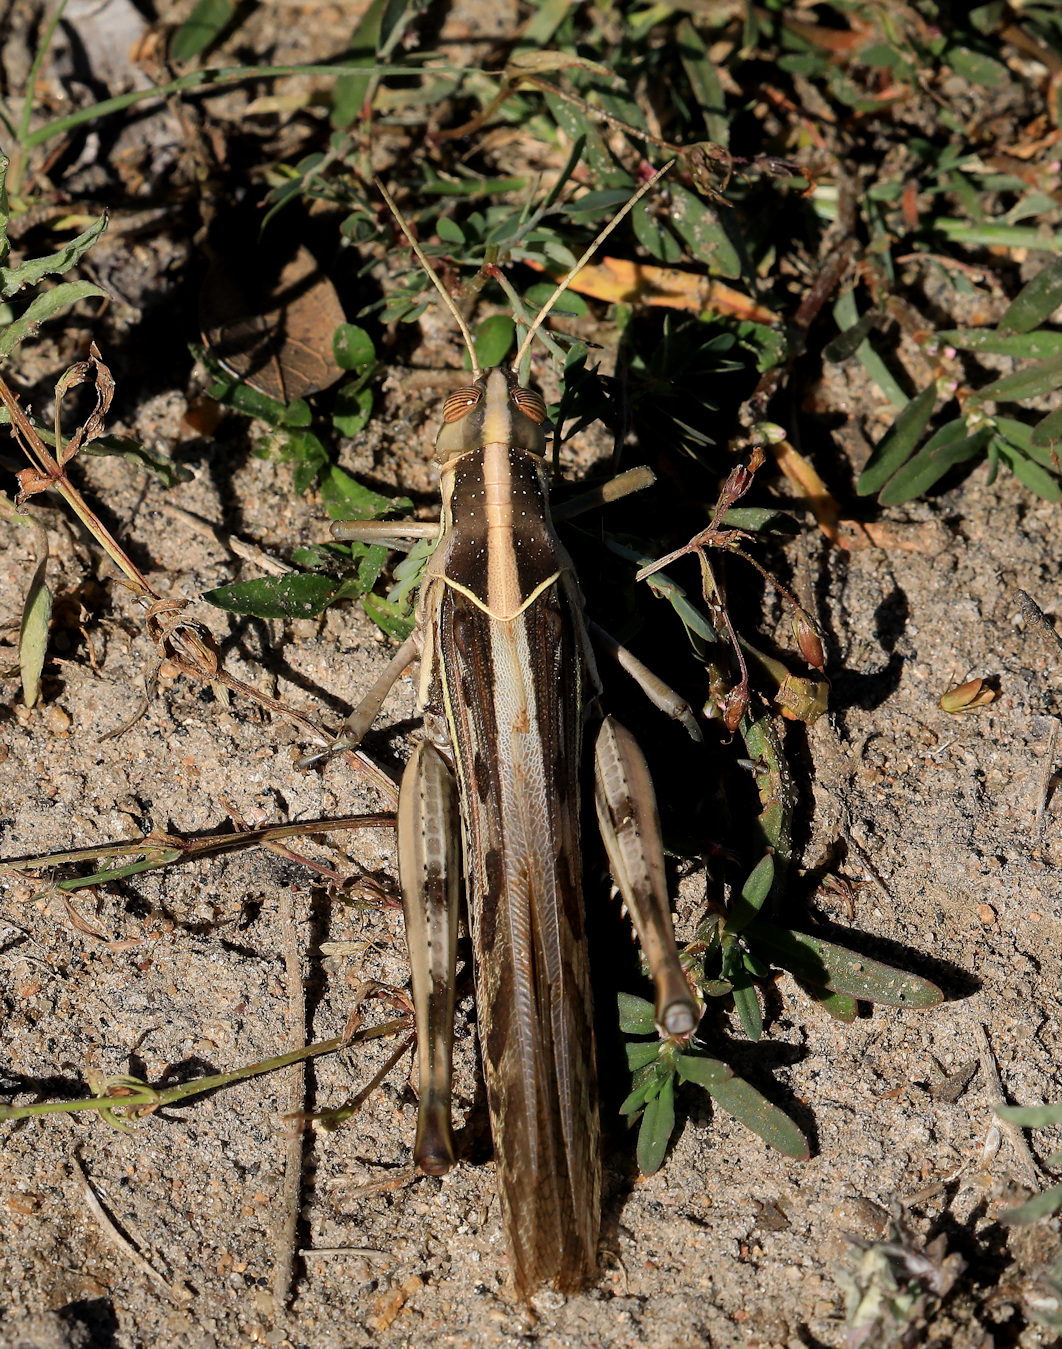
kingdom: Animalia
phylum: Arthropoda
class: Insecta
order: Orthoptera
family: Acrididae
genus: Cyrtacanthacris
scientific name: Cyrtacanthacris tatarica
